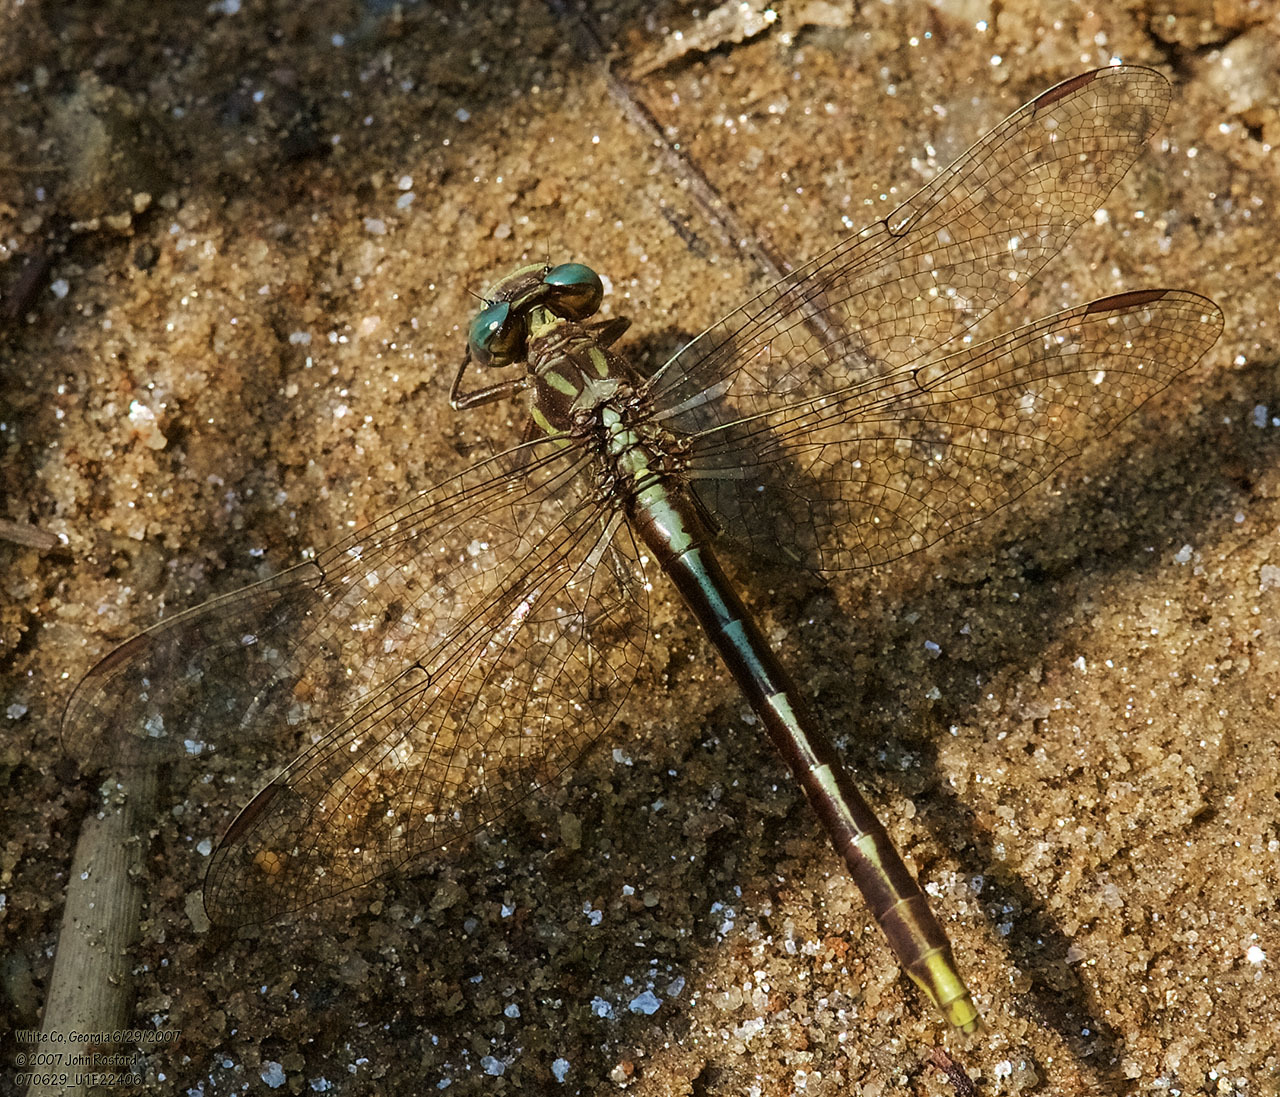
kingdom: Animalia
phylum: Arthropoda
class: Insecta
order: Odonata
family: Gomphidae
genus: Phanogomphus
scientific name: Phanogomphus exilis
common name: Lancet clubtail
